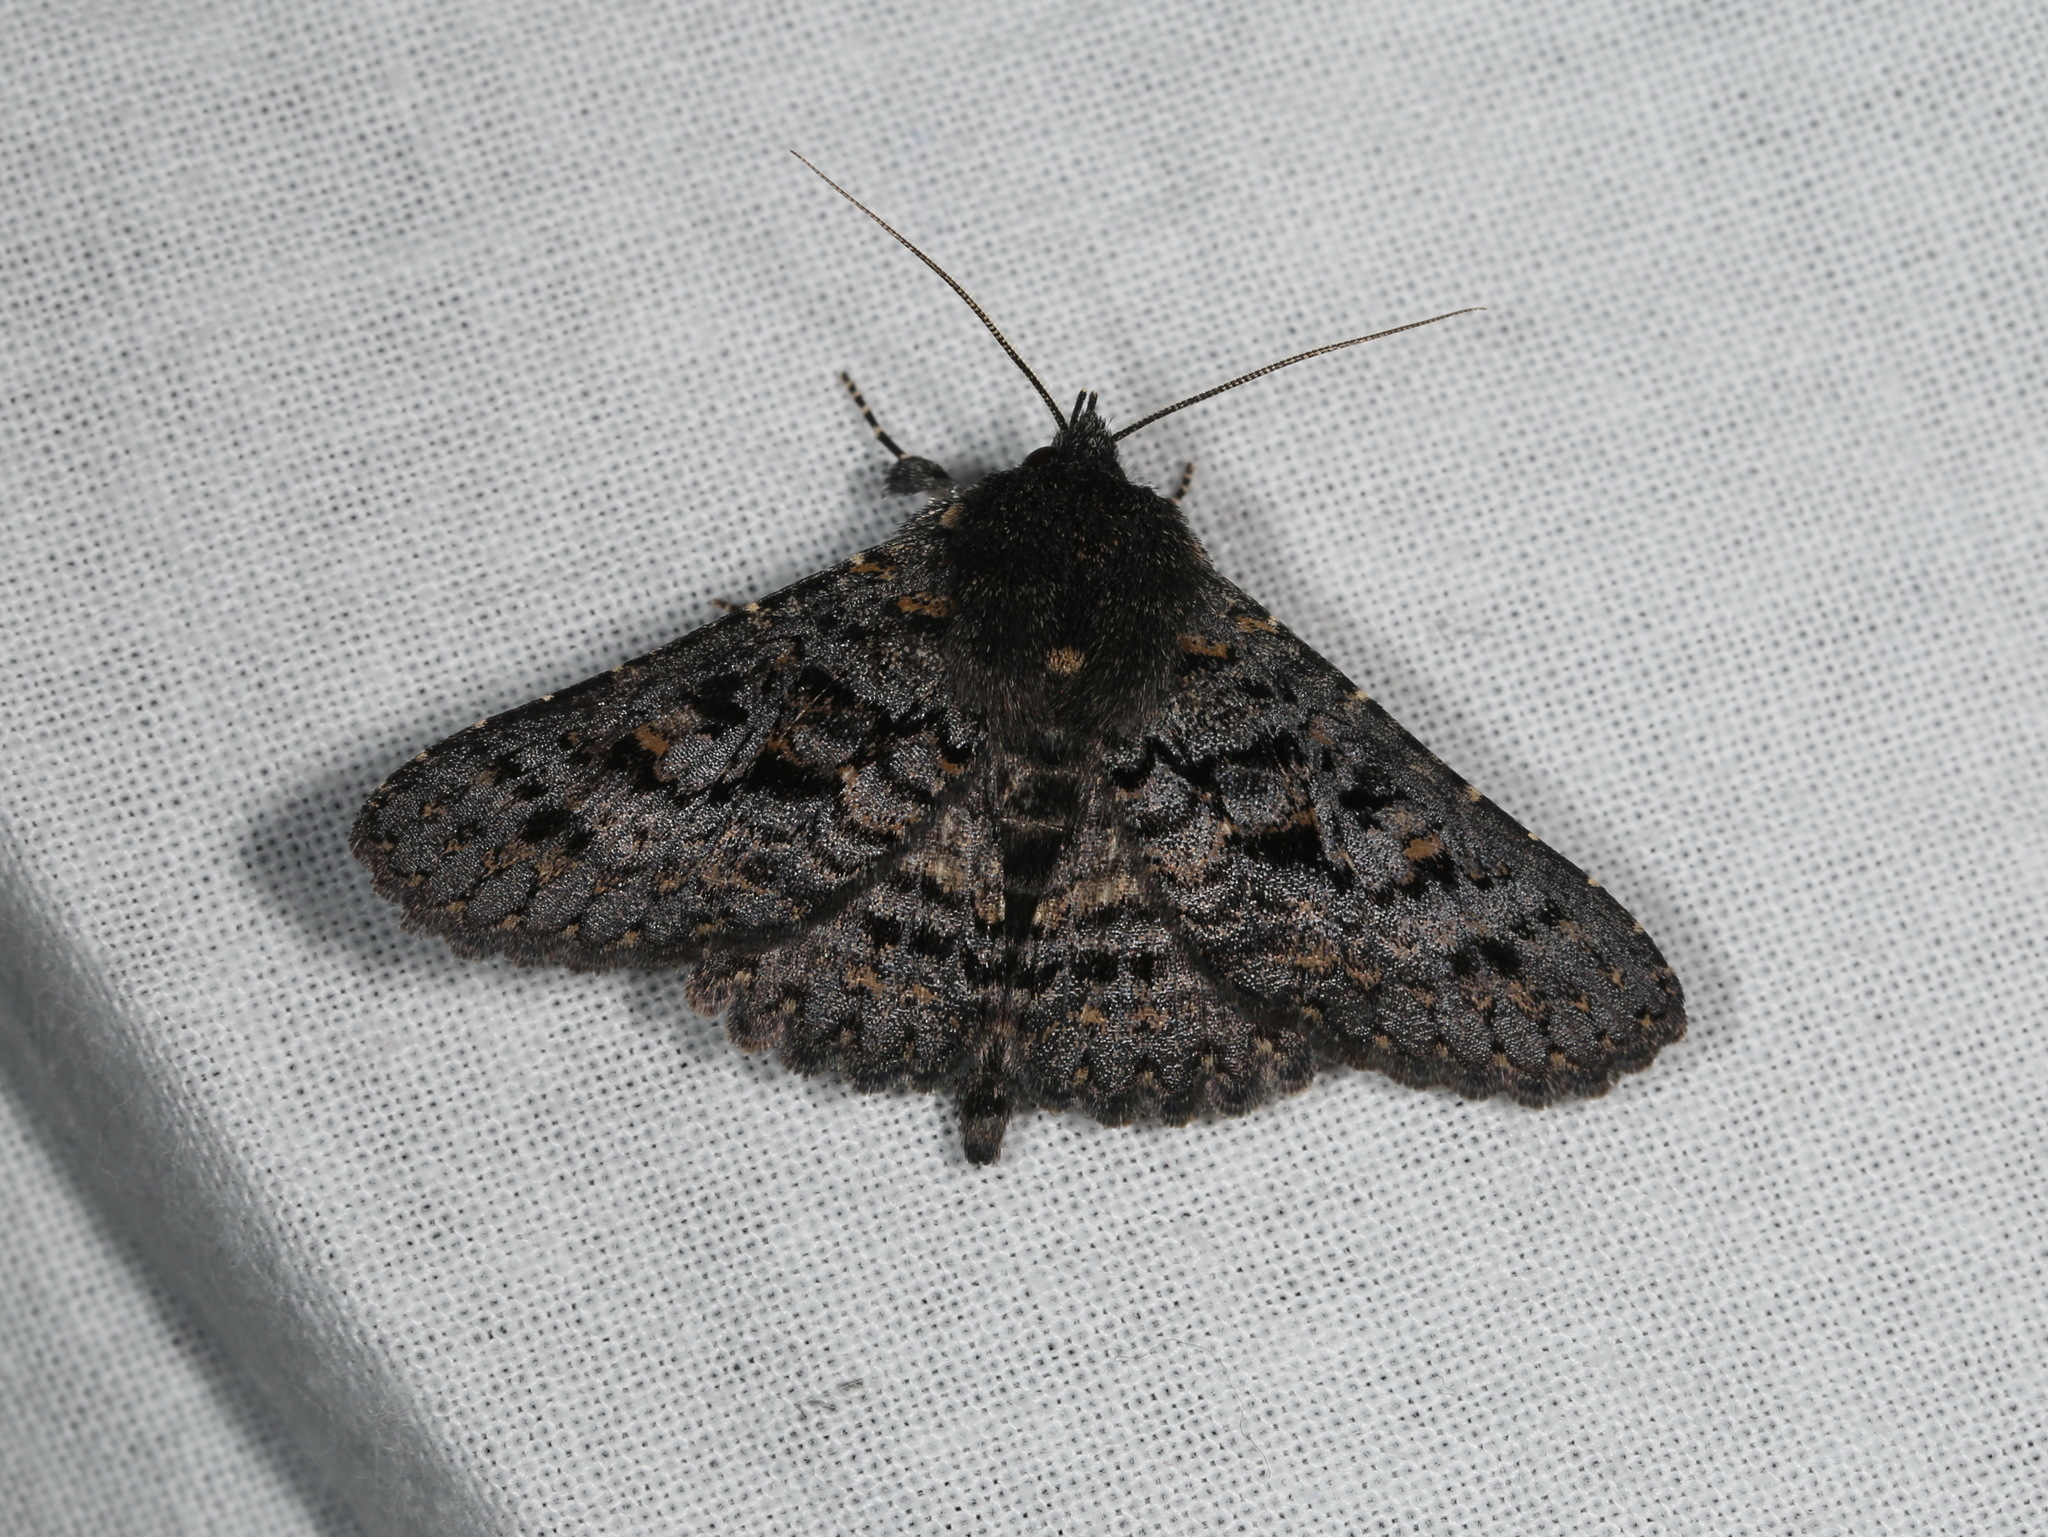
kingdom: Animalia
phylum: Arthropoda
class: Insecta
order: Lepidoptera
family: Erebidae
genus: Praxis
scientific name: Praxis edwardsii
